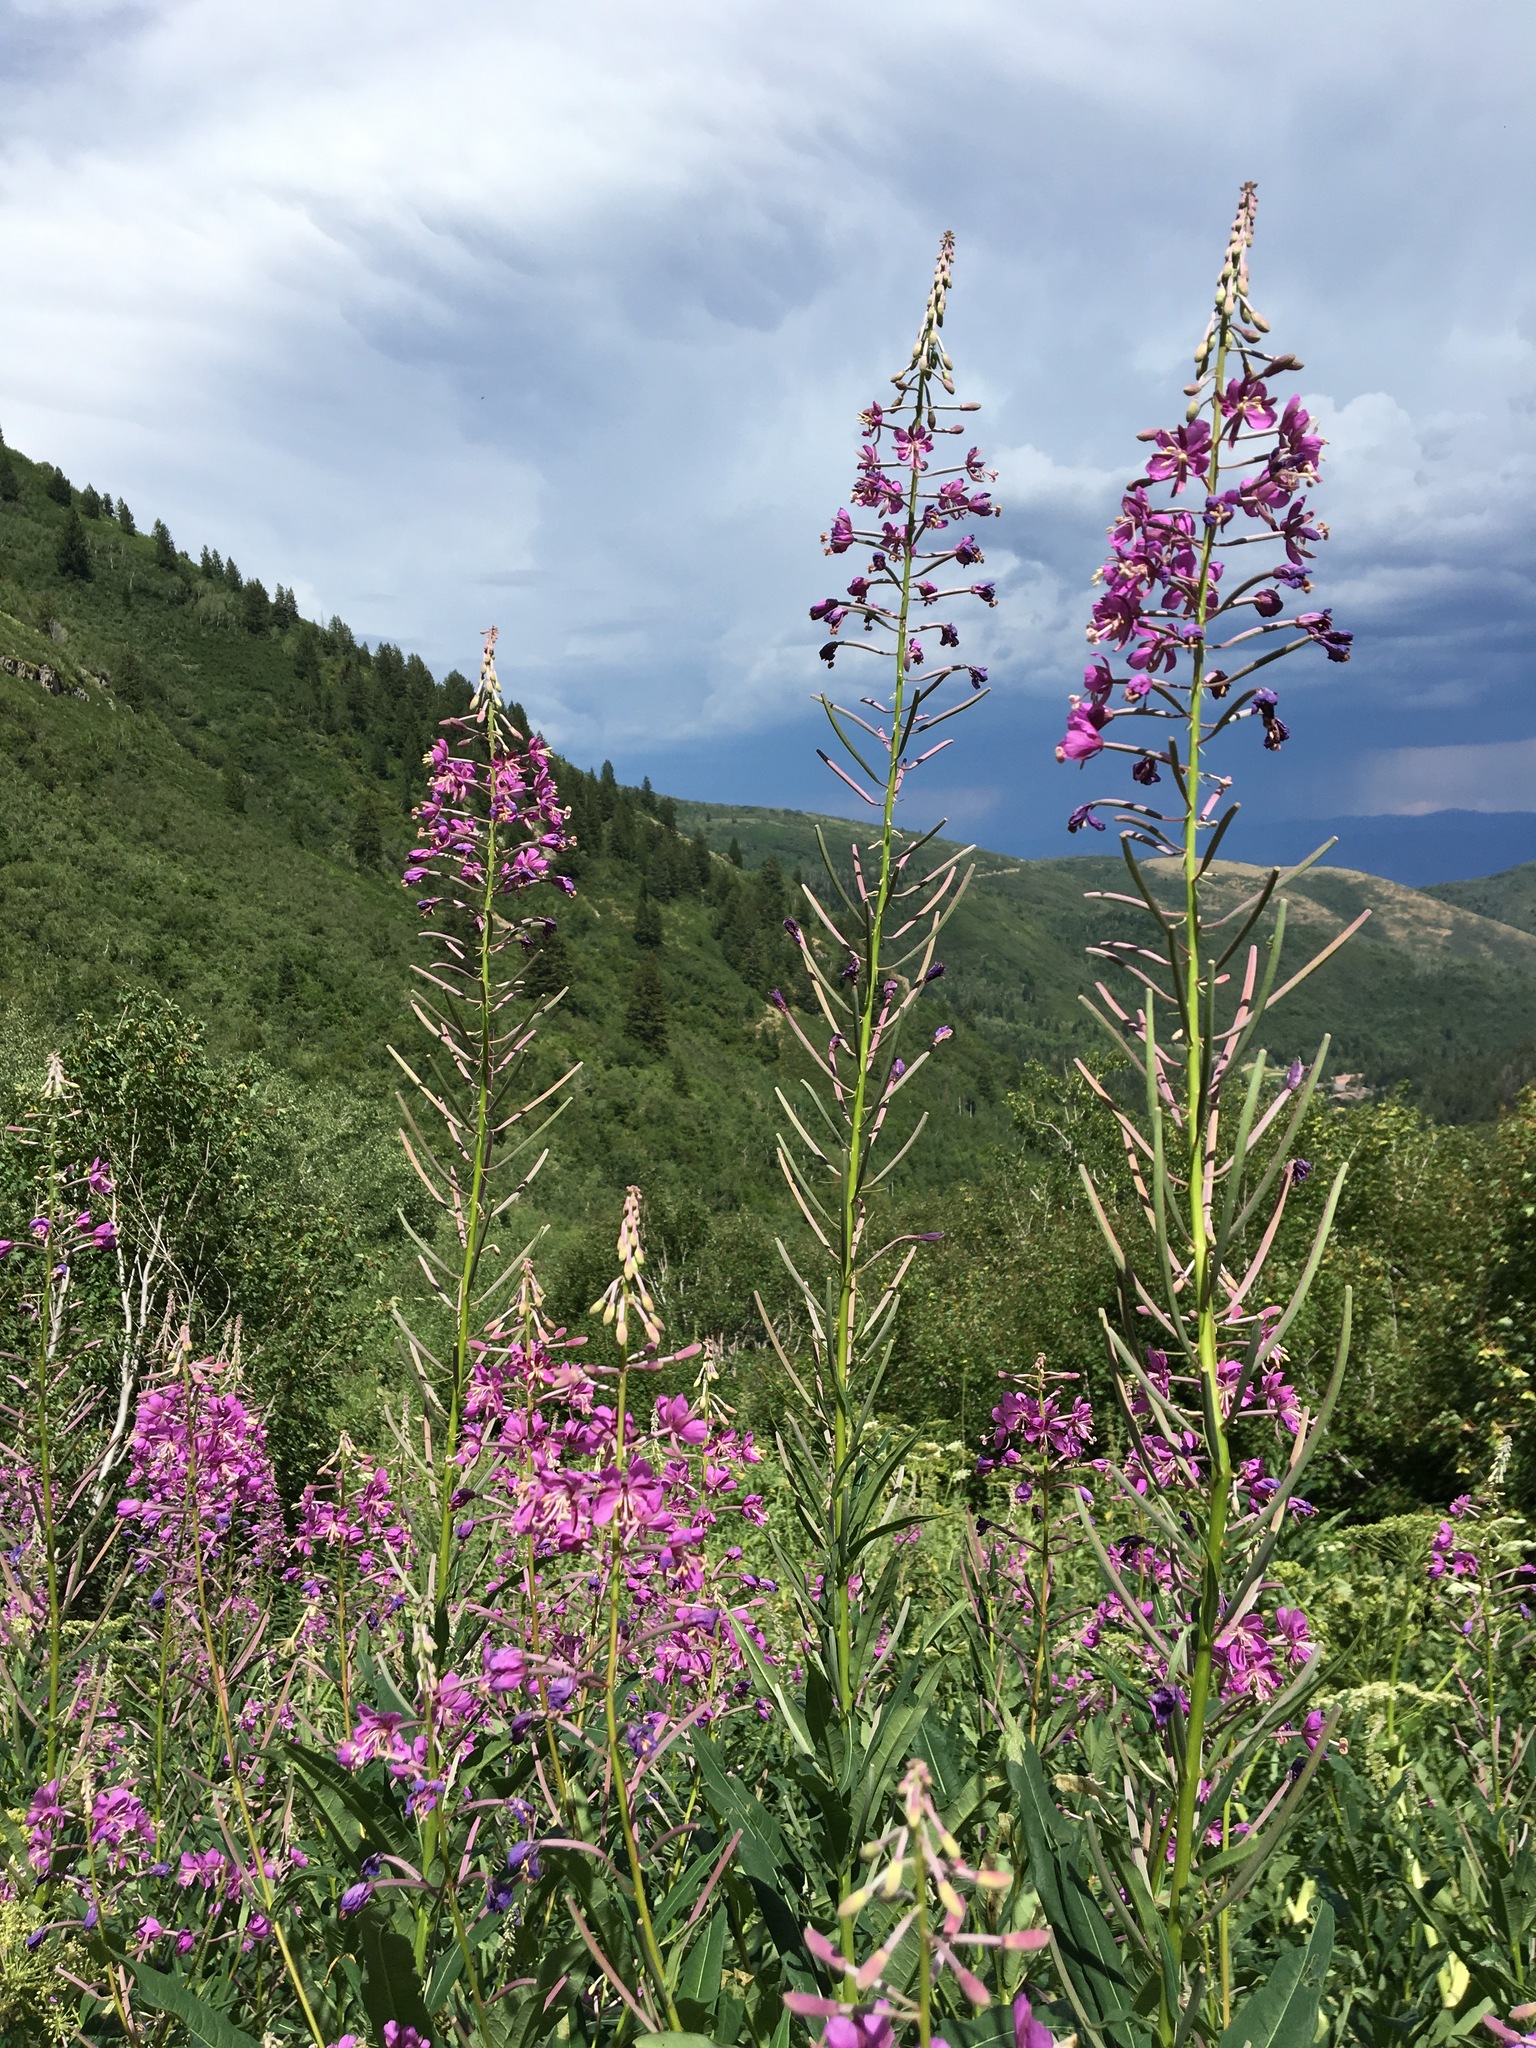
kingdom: Plantae
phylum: Tracheophyta
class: Magnoliopsida
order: Myrtales
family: Onagraceae
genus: Chamaenerion
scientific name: Chamaenerion angustifolium
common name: Fireweed
